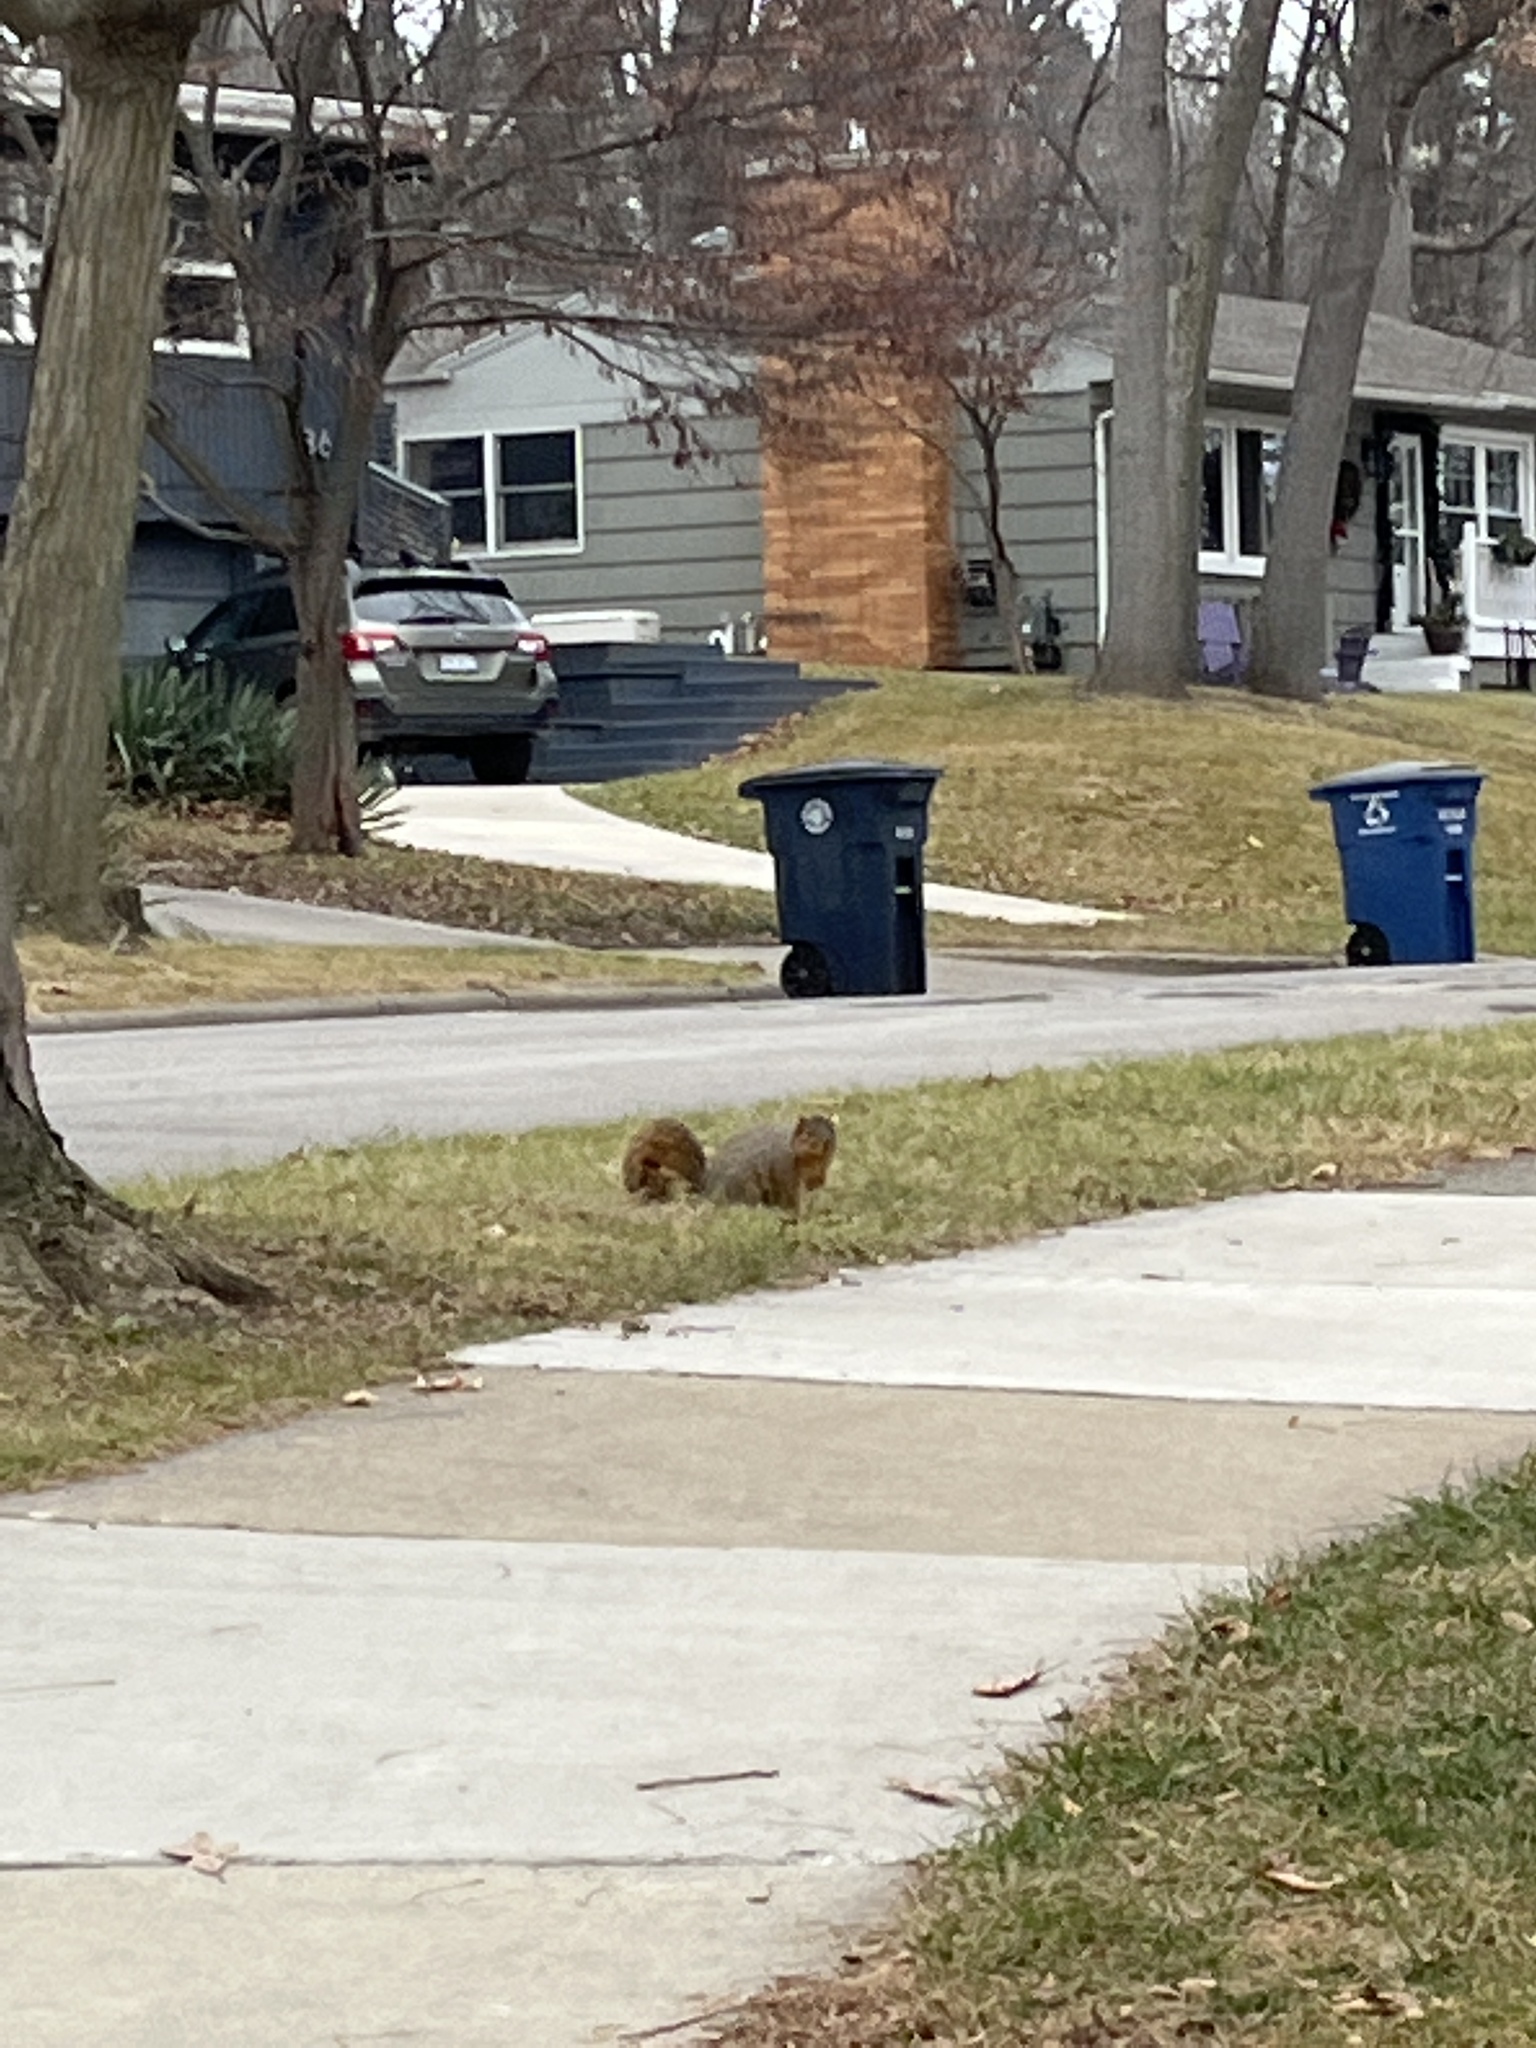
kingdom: Animalia
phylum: Chordata
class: Mammalia
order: Rodentia
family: Sciuridae
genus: Sciurus
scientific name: Sciurus niger
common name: Fox squirrel
